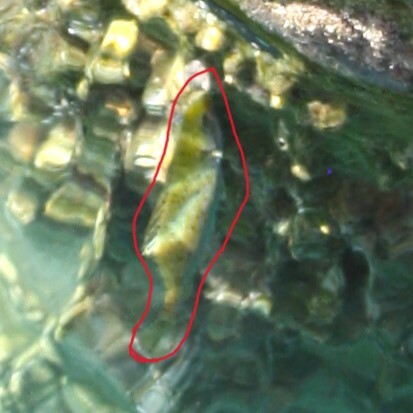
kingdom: Animalia
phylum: Chordata
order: Perciformes
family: Siganidae
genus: Siganus
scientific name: Siganus
